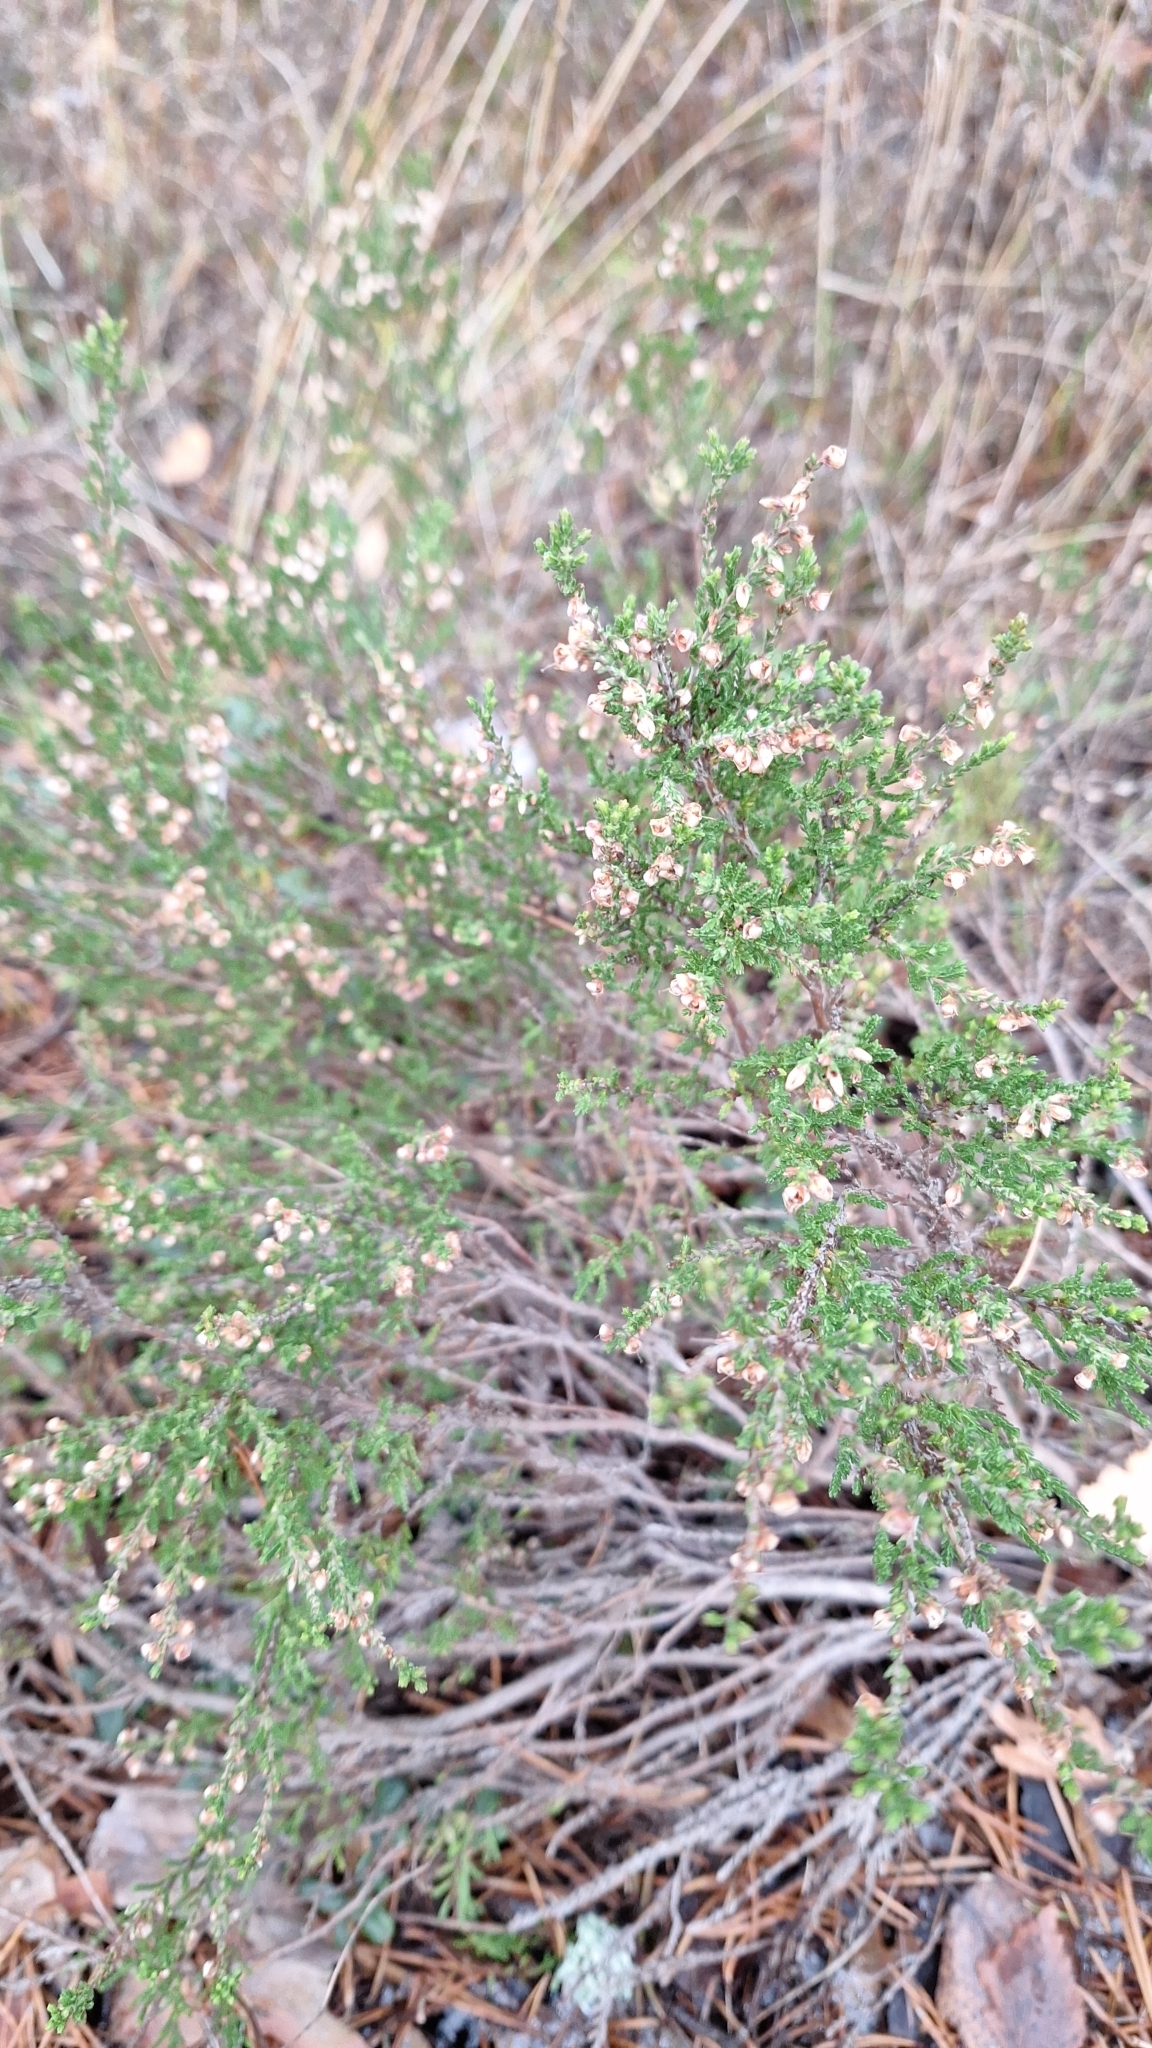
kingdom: Plantae
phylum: Tracheophyta
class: Magnoliopsida
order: Ericales
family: Ericaceae
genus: Calluna
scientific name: Calluna vulgaris
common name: Heather
